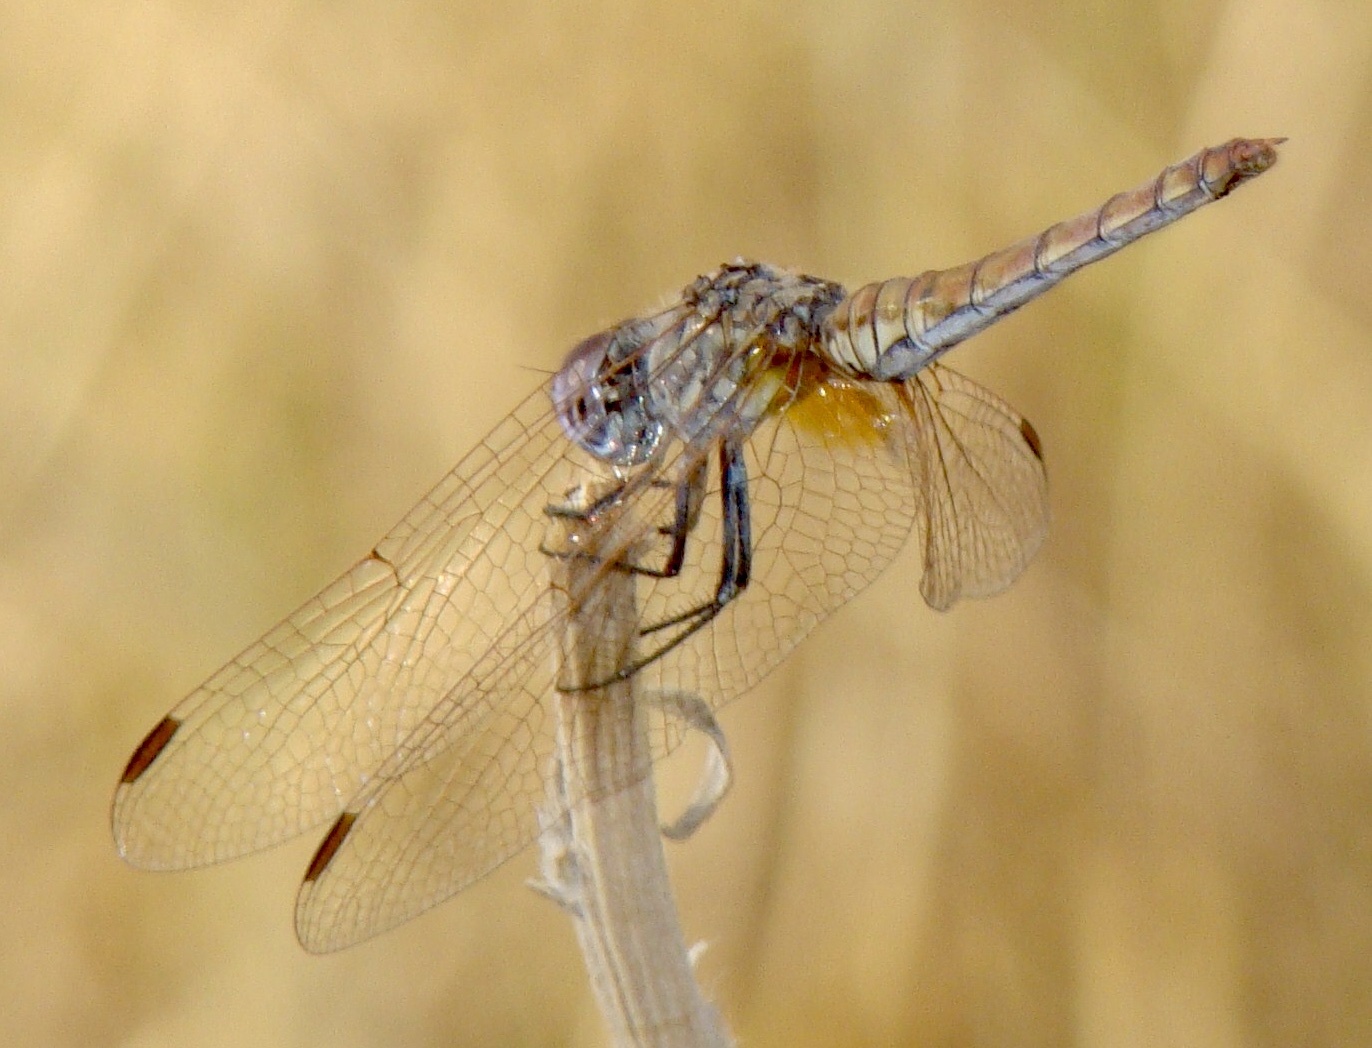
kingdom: Animalia
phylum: Arthropoda
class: Insecta
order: Odonata
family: Libellulidae
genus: Trithemis
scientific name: Trithemis annulata
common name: Violet dropwing
